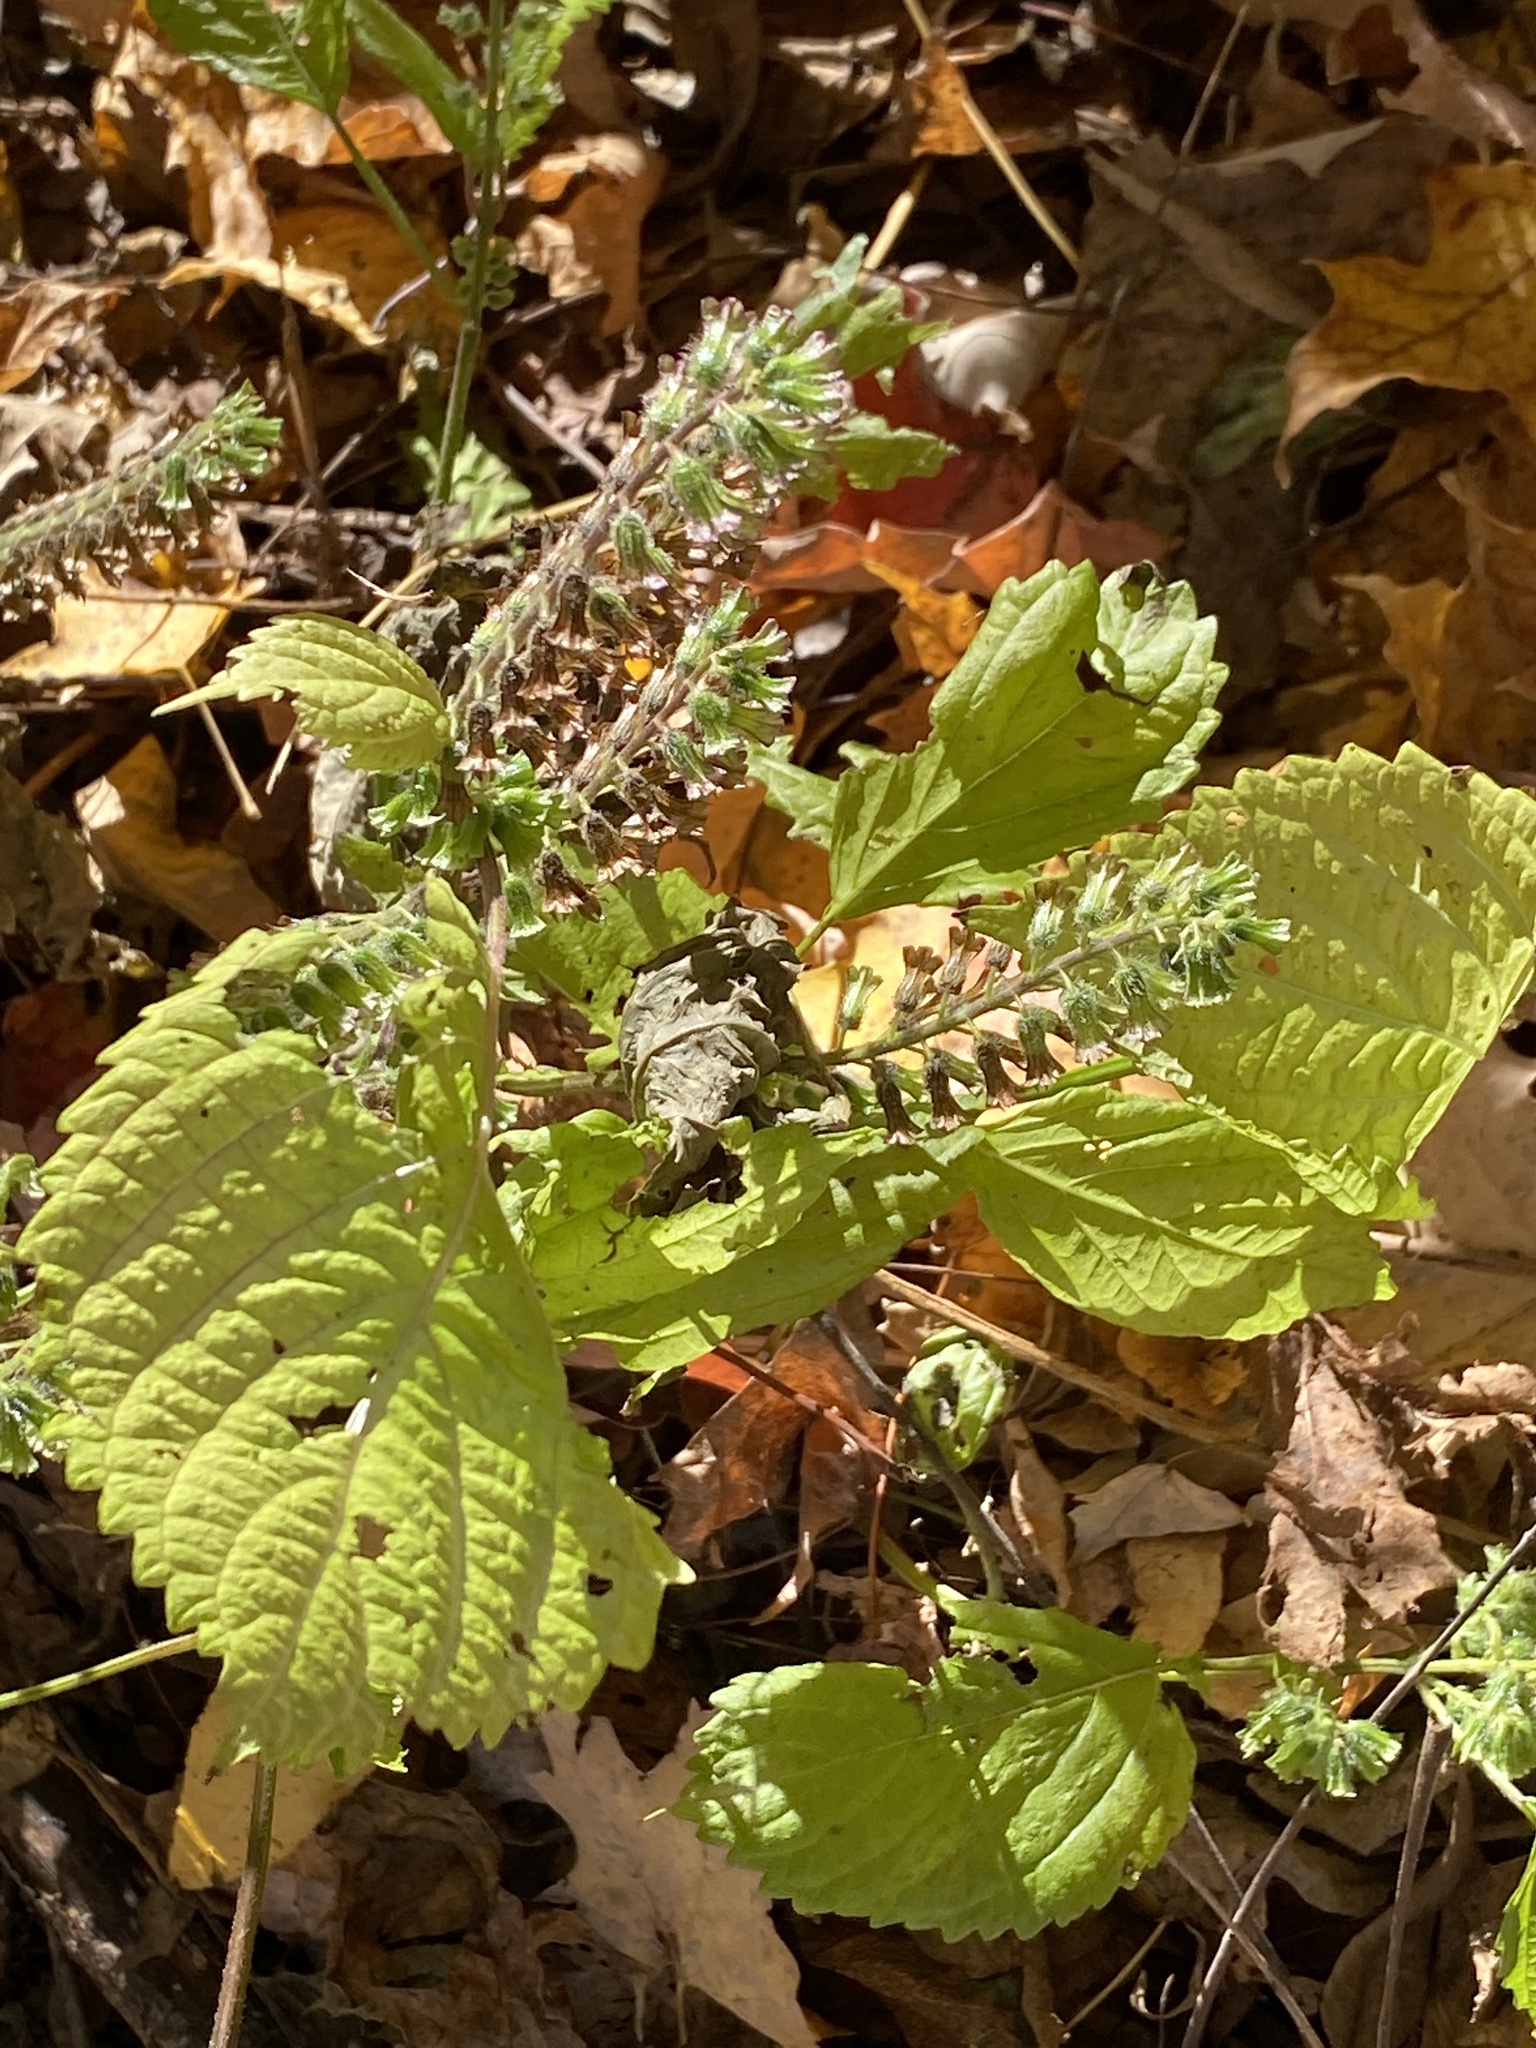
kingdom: Plantae
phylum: Tracheophyta
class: Magnoliopsida
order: Lamiales
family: Lamiaceae
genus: Perilla
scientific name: Perilla frutescens
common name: Perilla
